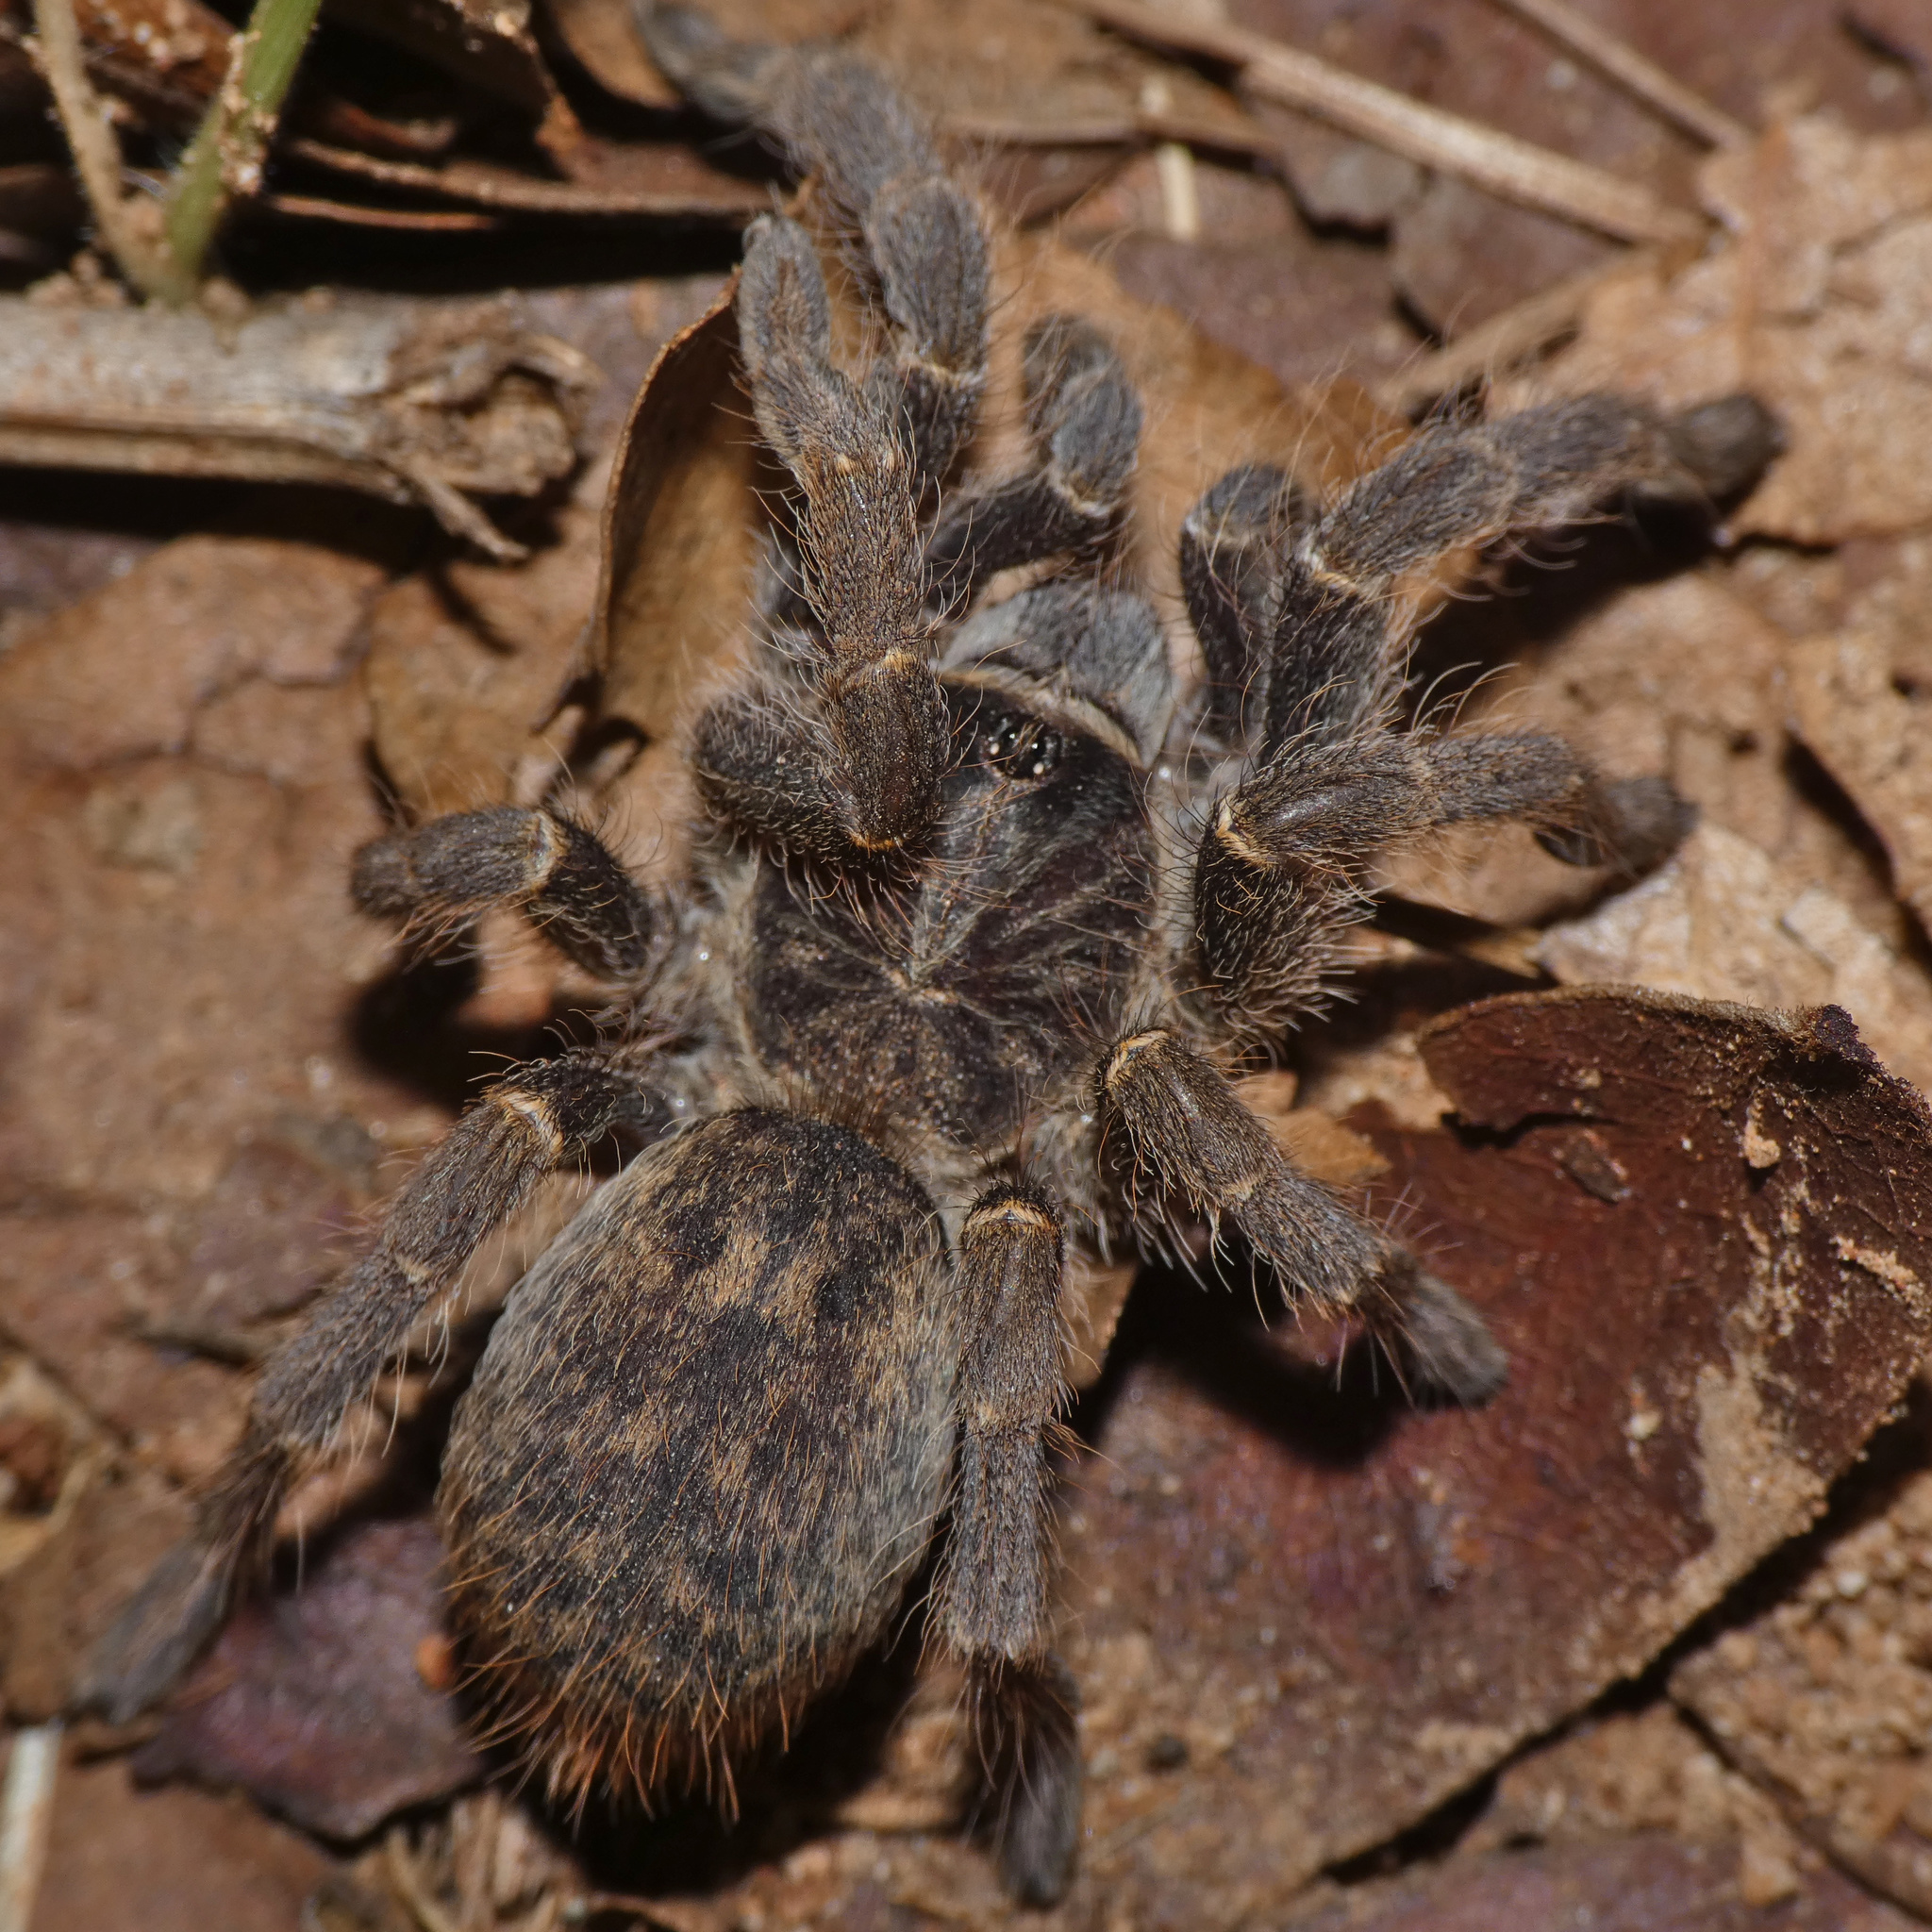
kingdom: Animalia
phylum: Arthropoda
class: Arachnida
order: Araneae
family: Theraphosidae
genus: Idiothele
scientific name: Idiothele nigrofulva
